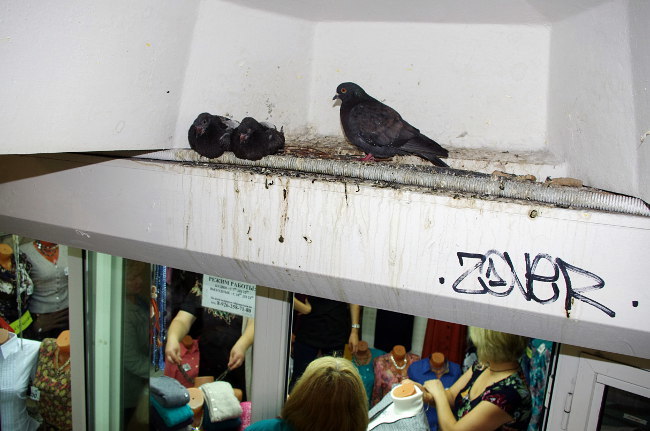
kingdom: Animalia
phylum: Chordata
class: Aves
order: Columbiformes
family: Columbidae
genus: Columba
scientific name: Columba livia
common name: Rock pigeon
